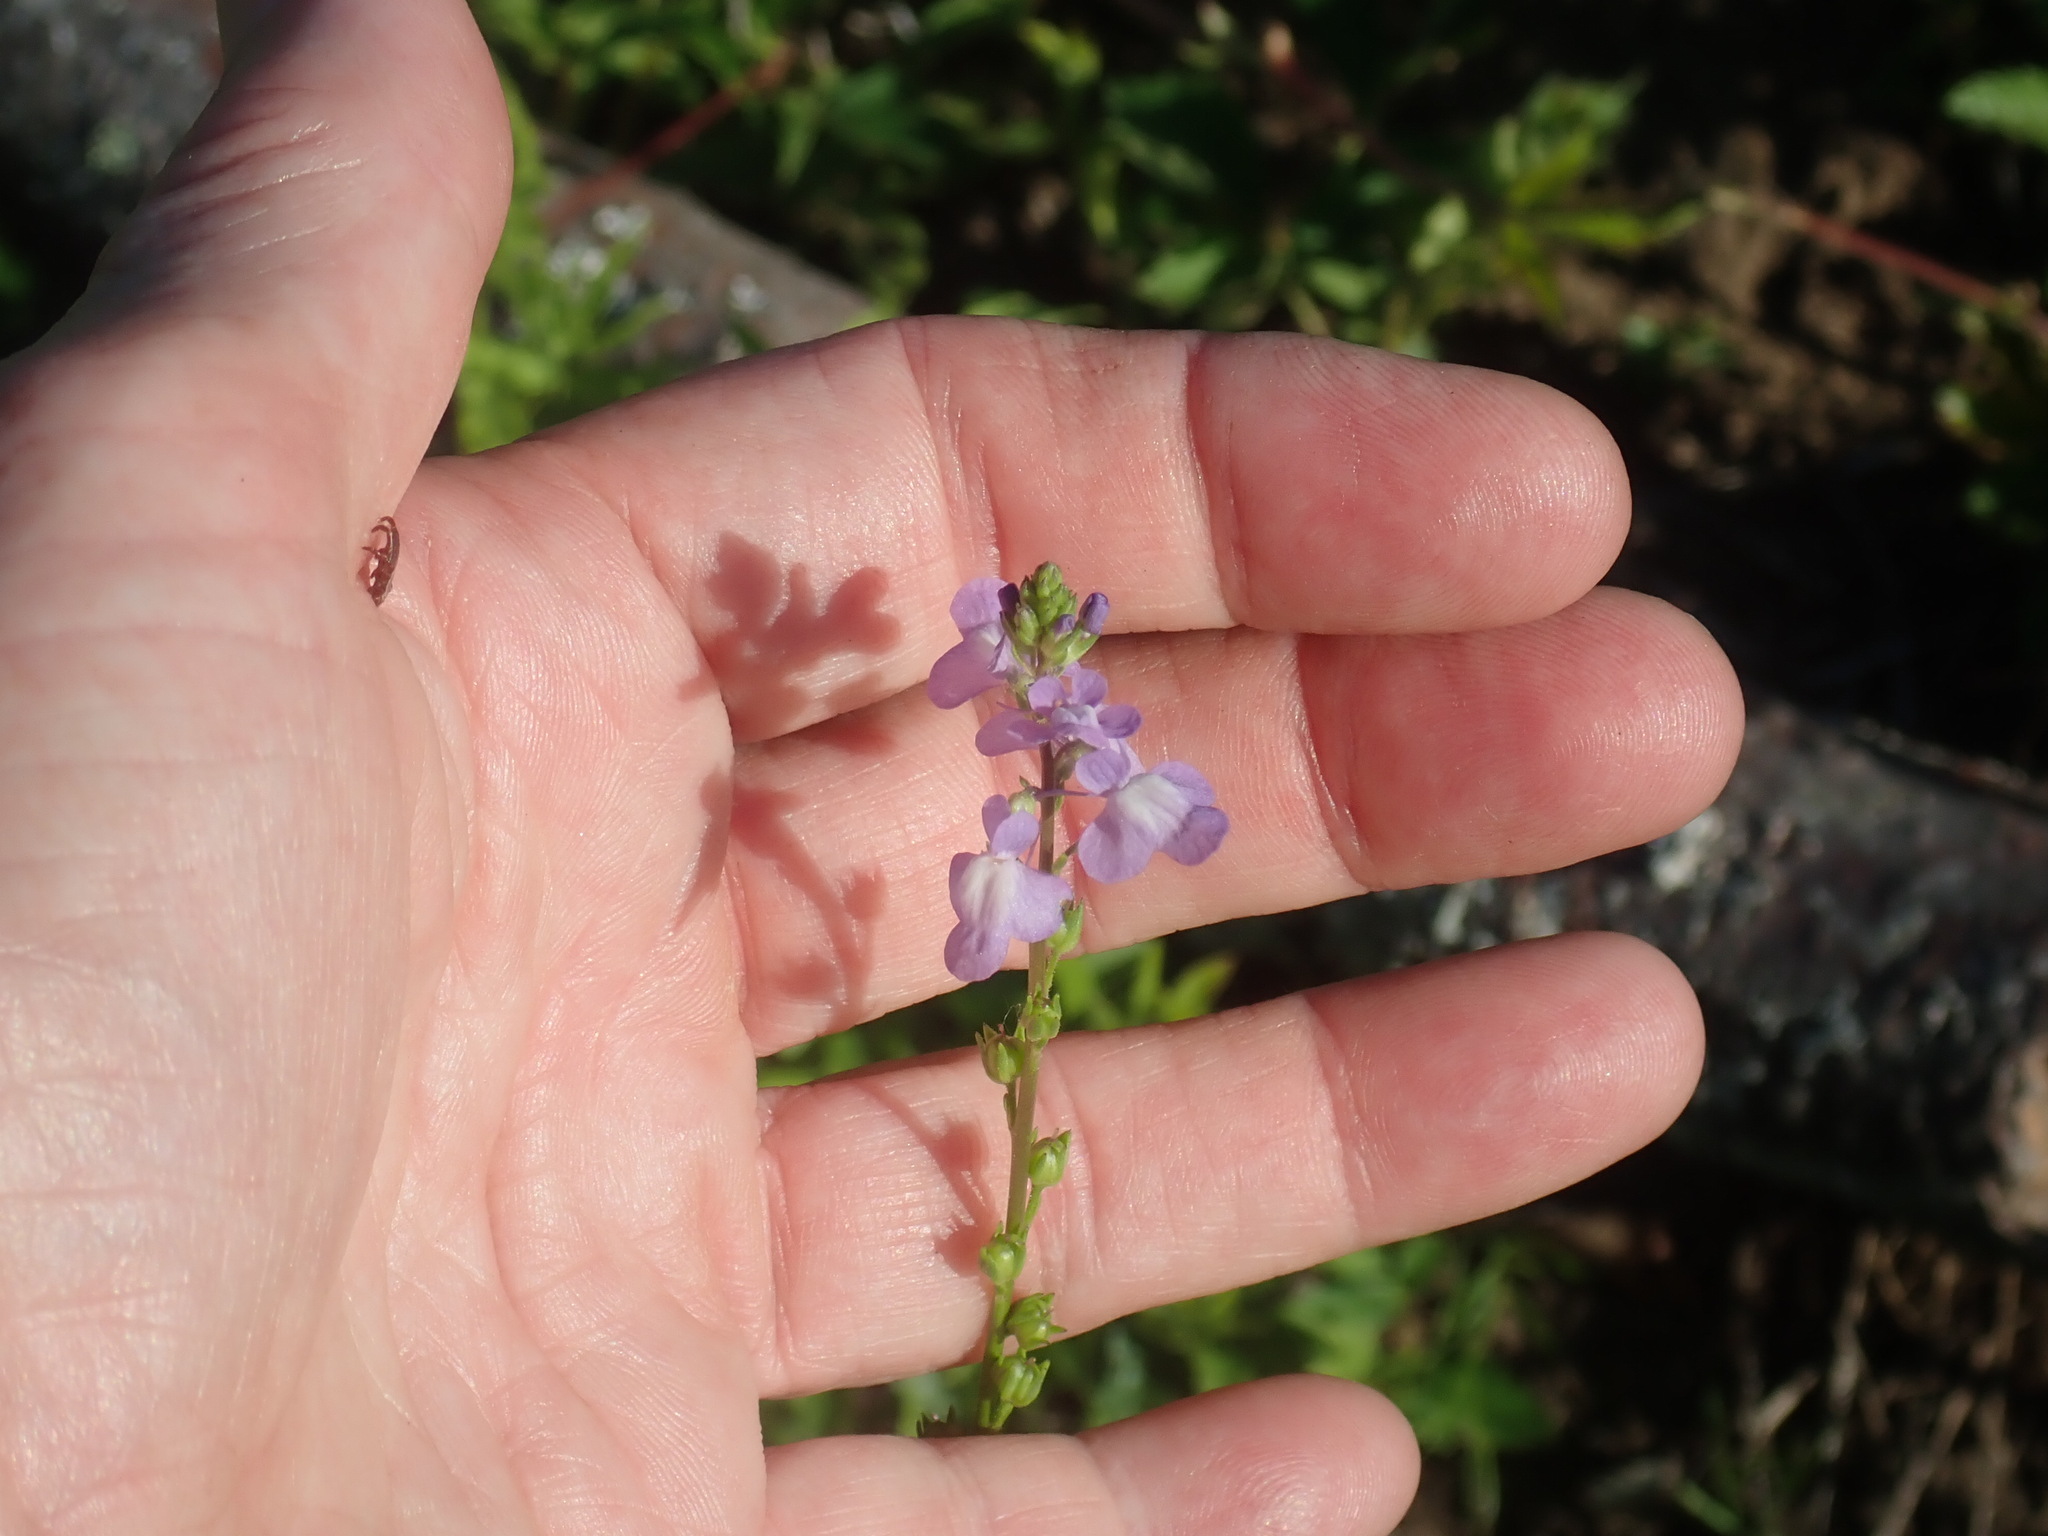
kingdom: Plantae
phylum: Tracheophyta
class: Magnoliopsida
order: Lamiales
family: Plantaginaceae
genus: Nuttallanthus
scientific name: Nuttallanthus canadensis
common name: Blue toadflax
